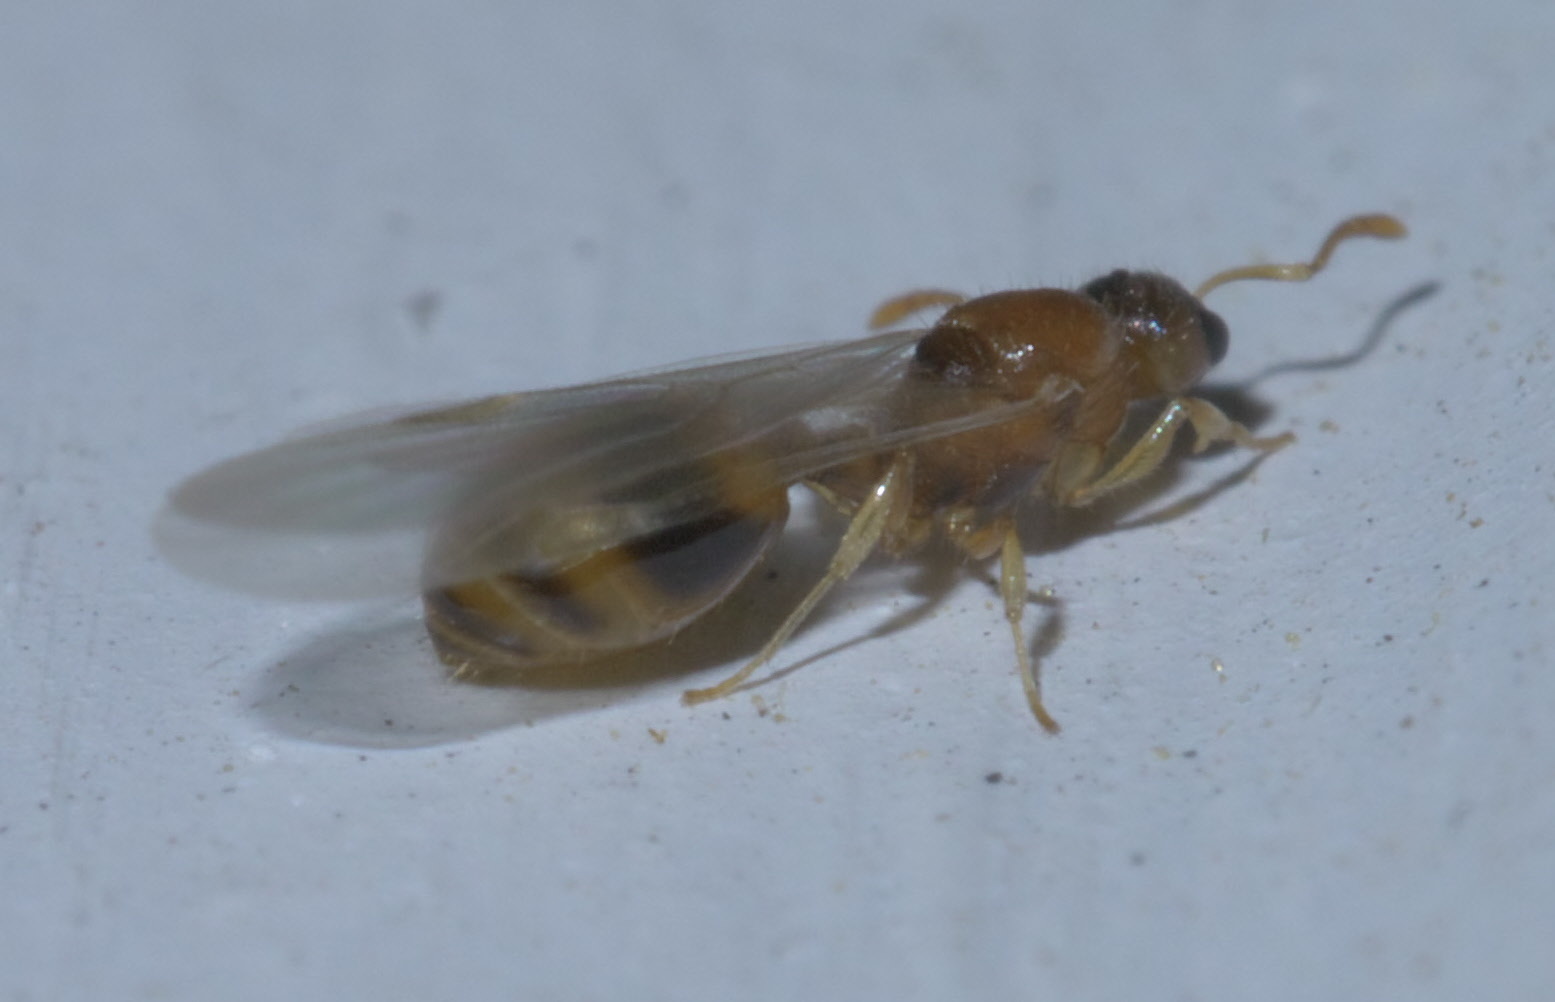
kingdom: Animalia
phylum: Arthropoda
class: Insecta
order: Hymenoptera
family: Formicidae
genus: Temnothorax
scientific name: Temnothorax curvispinosus
